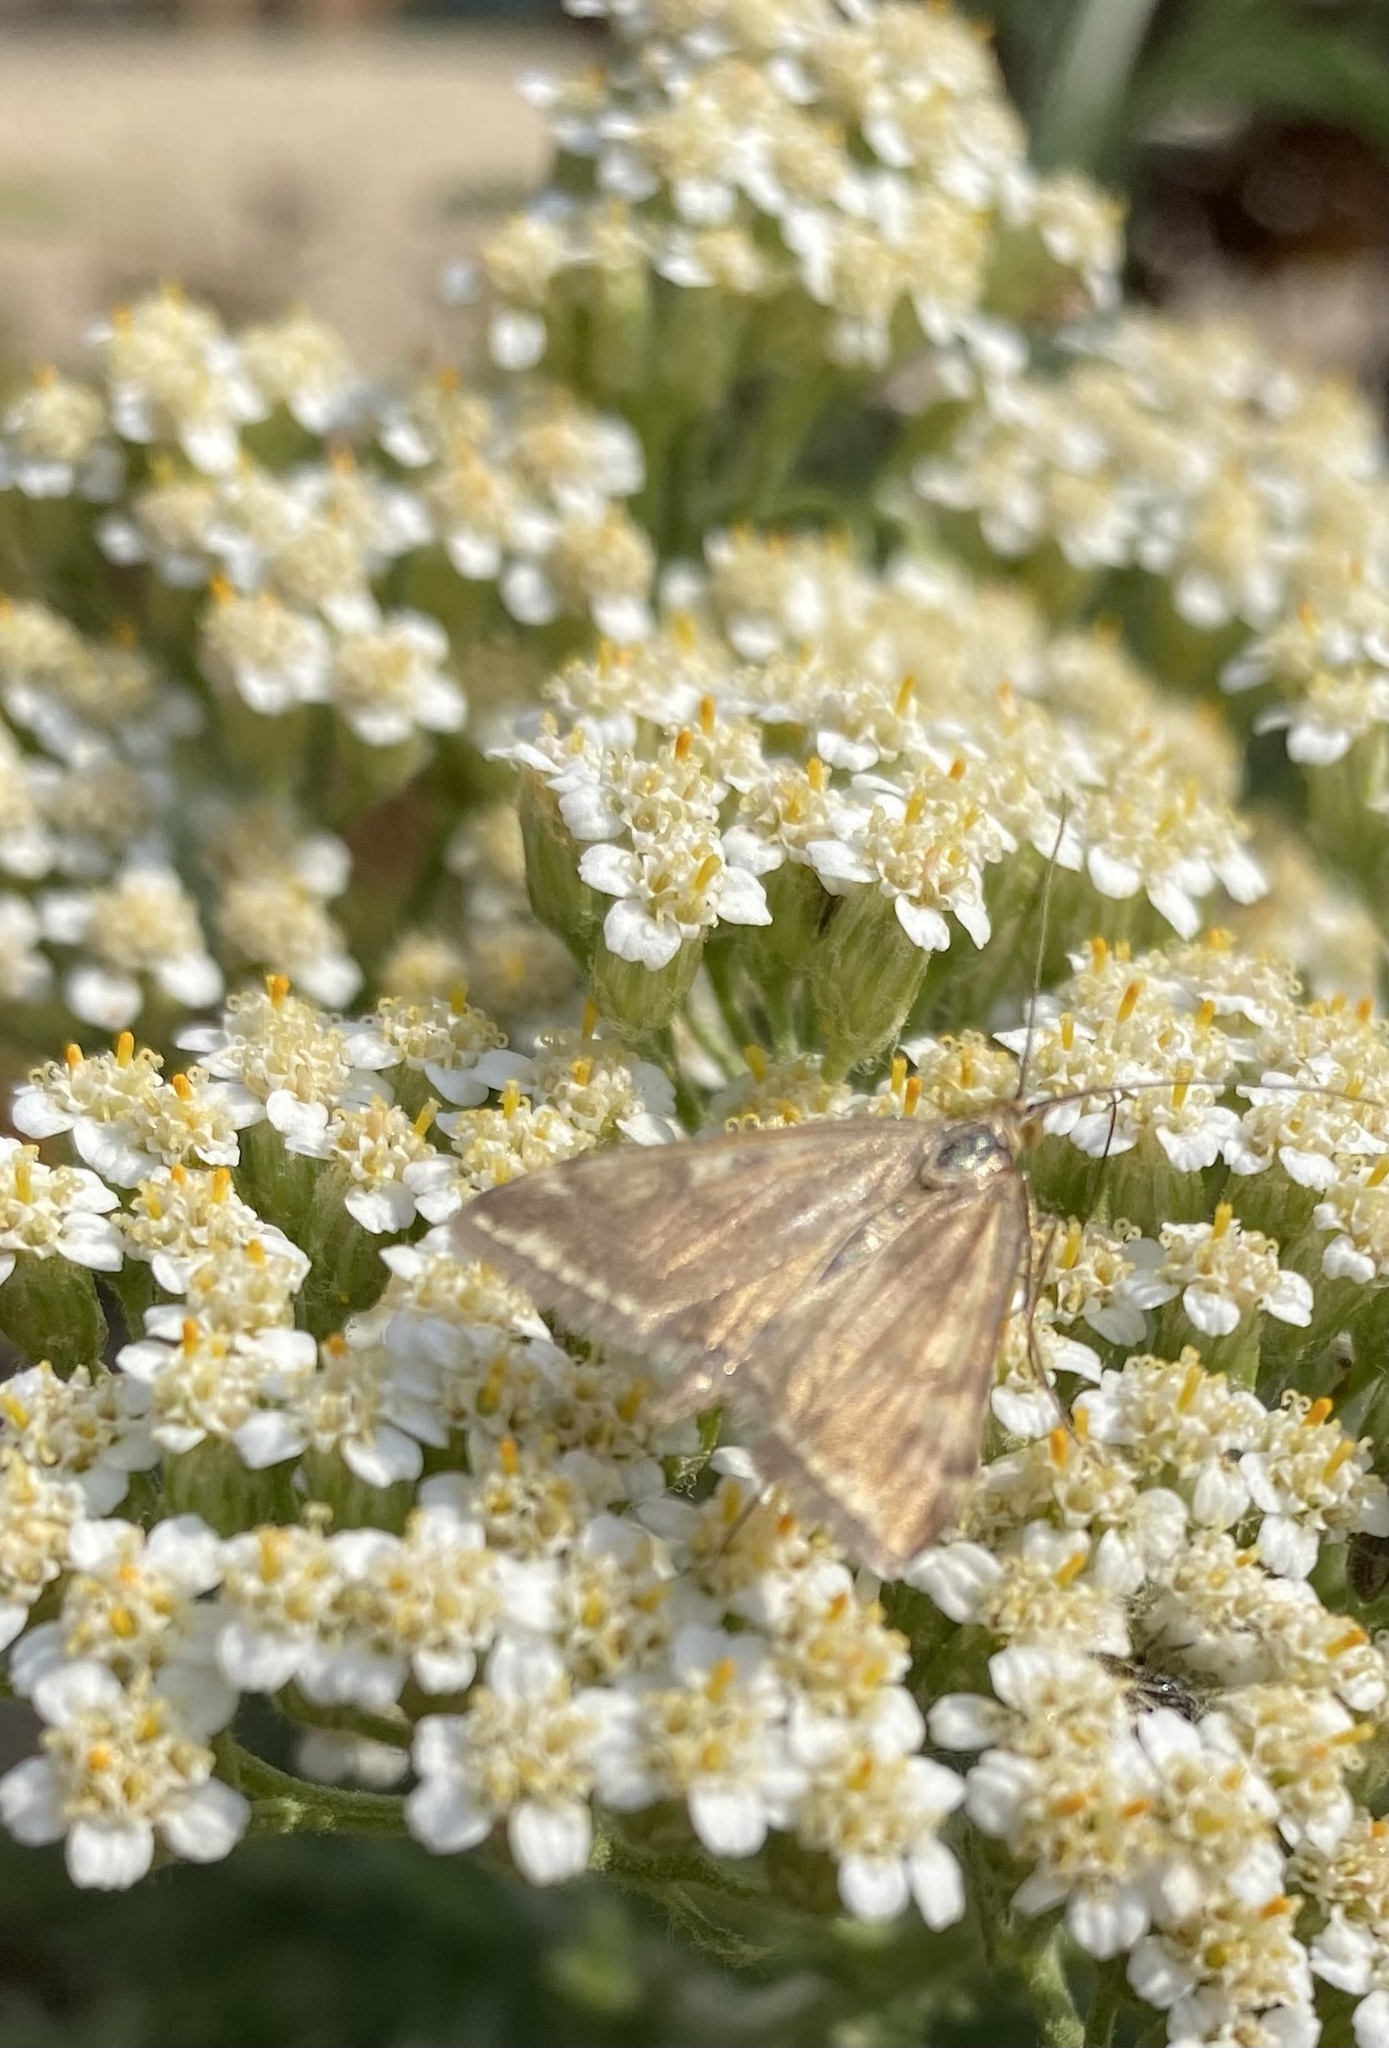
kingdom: Animalia
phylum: Arthropoda
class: Insecta
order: Lepidoptera
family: Crambidae
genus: Loxostege
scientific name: Loxostege sticticalis
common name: Crambid moth
